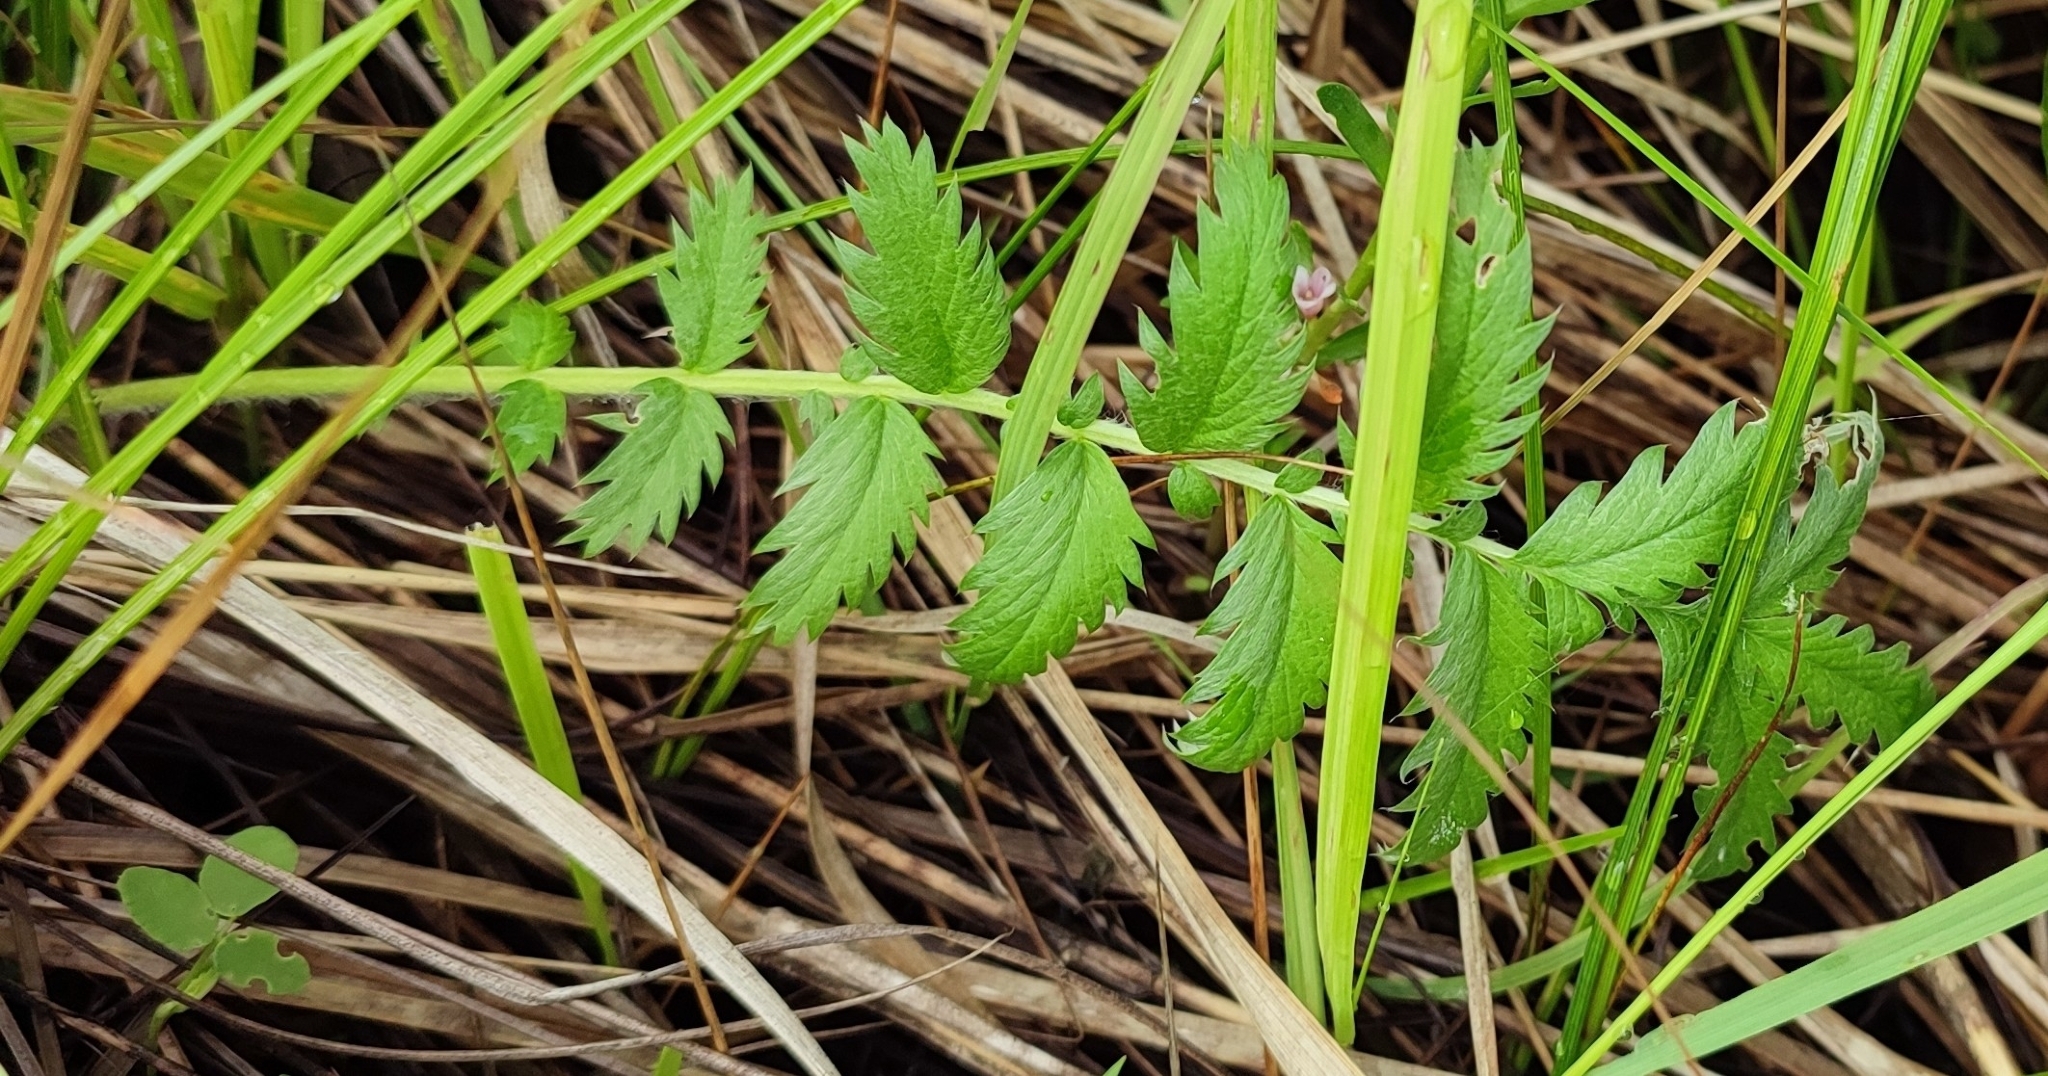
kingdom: Plantae
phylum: Tracheophyta
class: Magnoliopsida
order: Rosales
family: Rosaceae
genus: Argentina
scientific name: Argentina anserina
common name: Common silverweed
